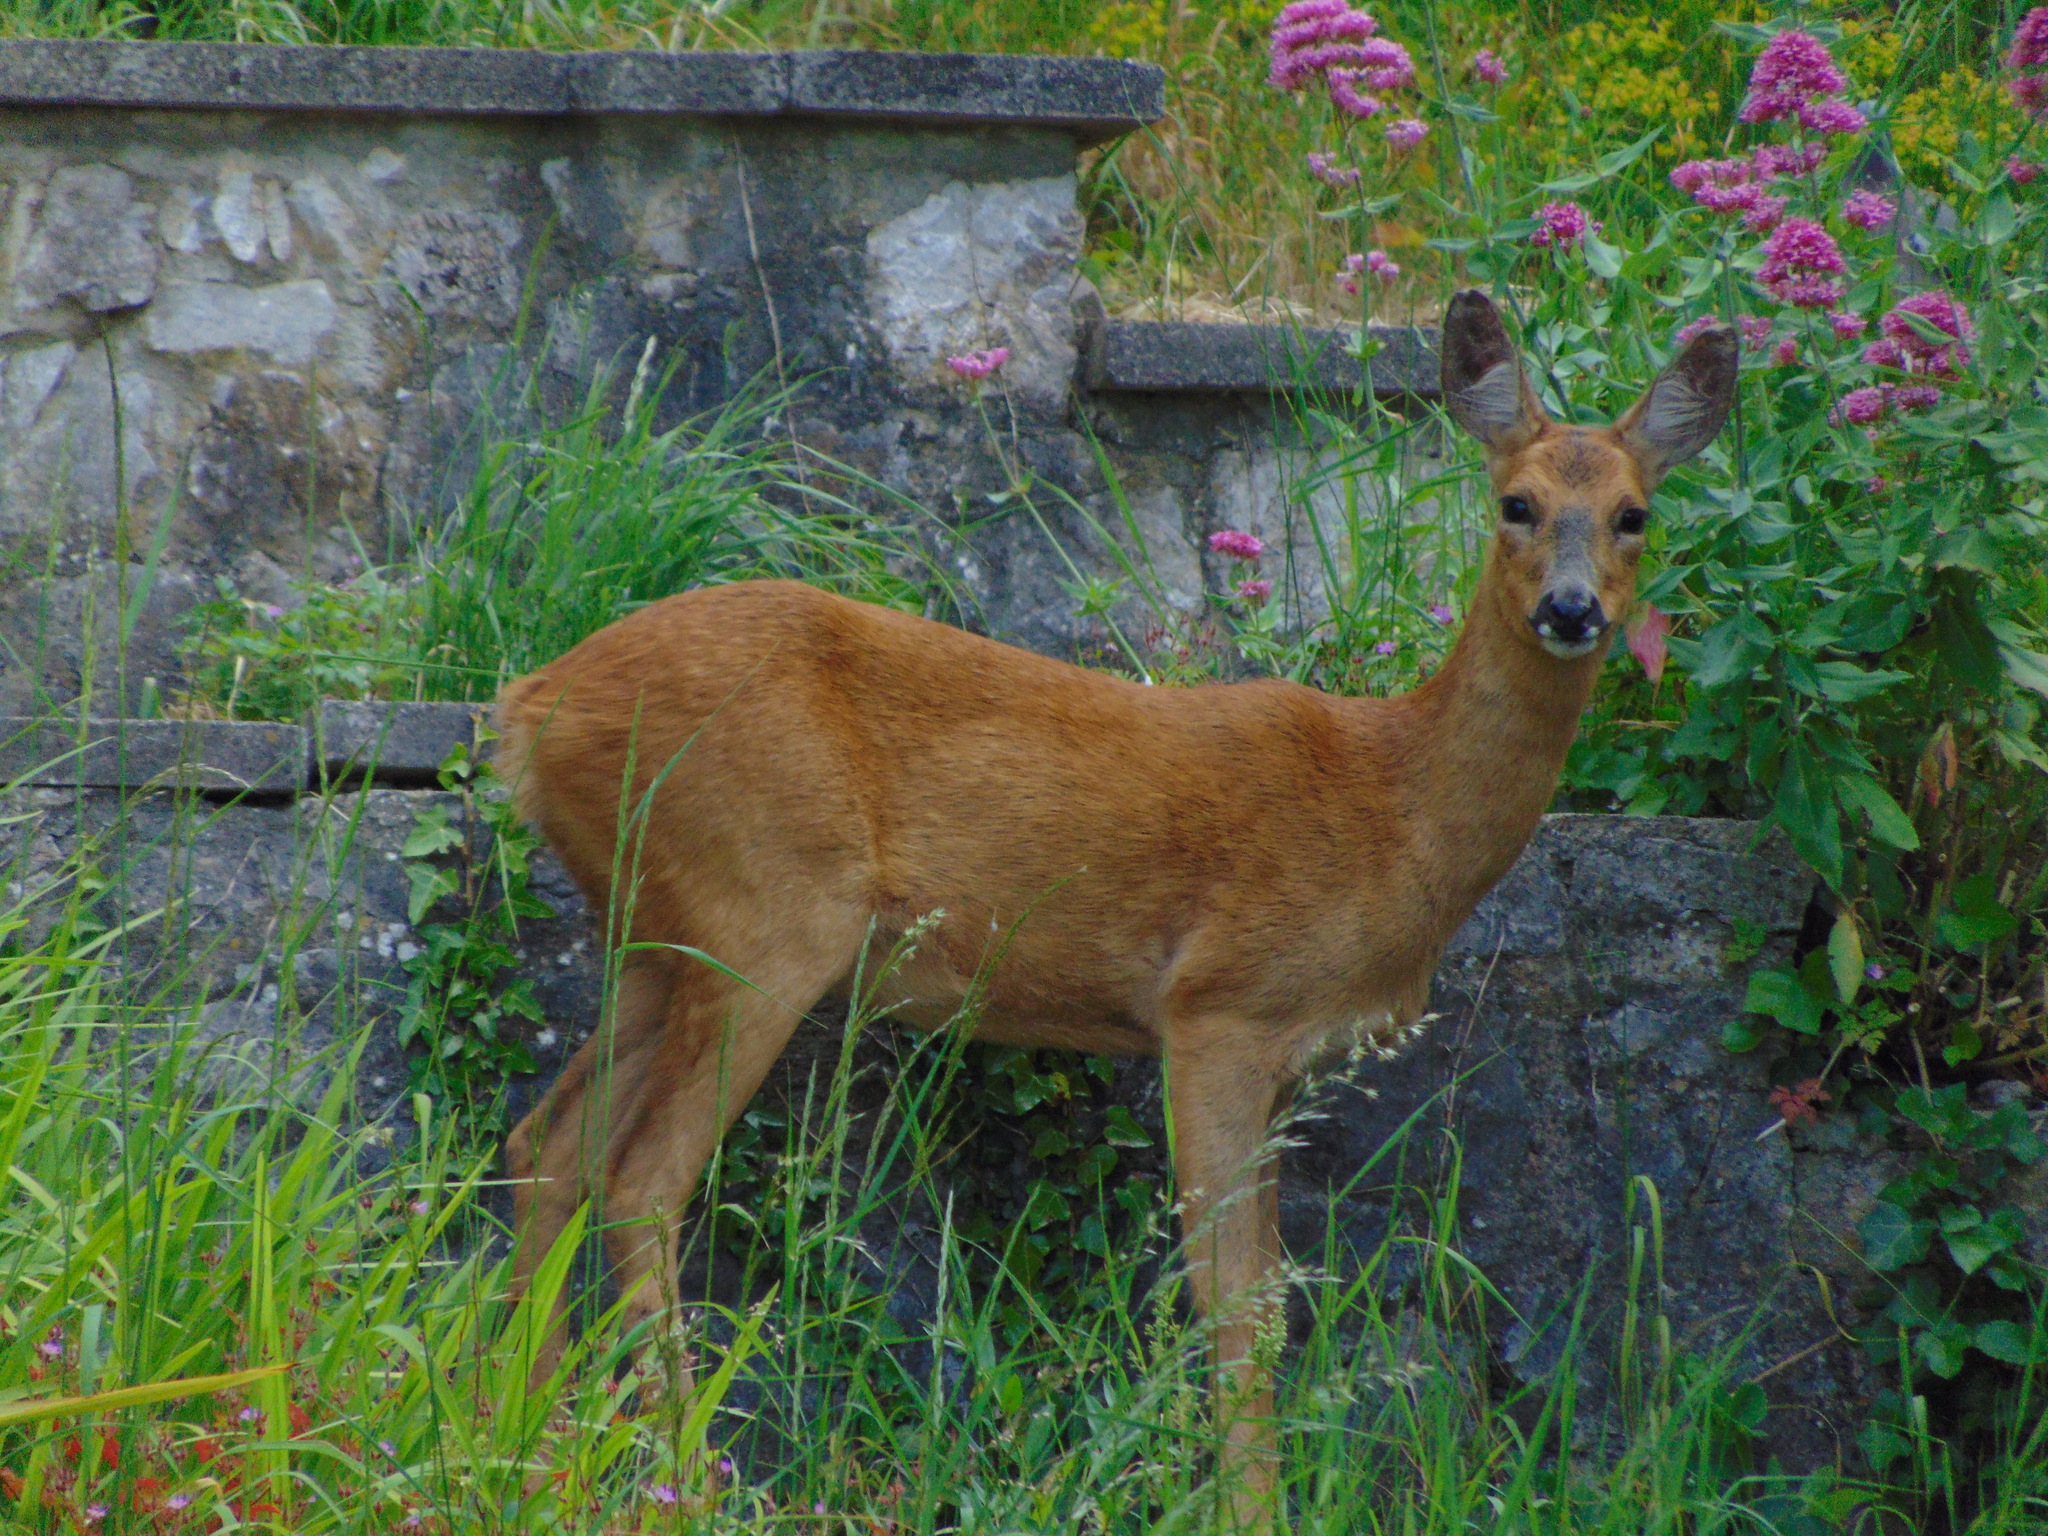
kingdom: Animalia
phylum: Chordata
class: Mammalia
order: Artiodactyla
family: Cervidae
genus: Capreolus
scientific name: Capreolus capreolus
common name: Western roe deer
